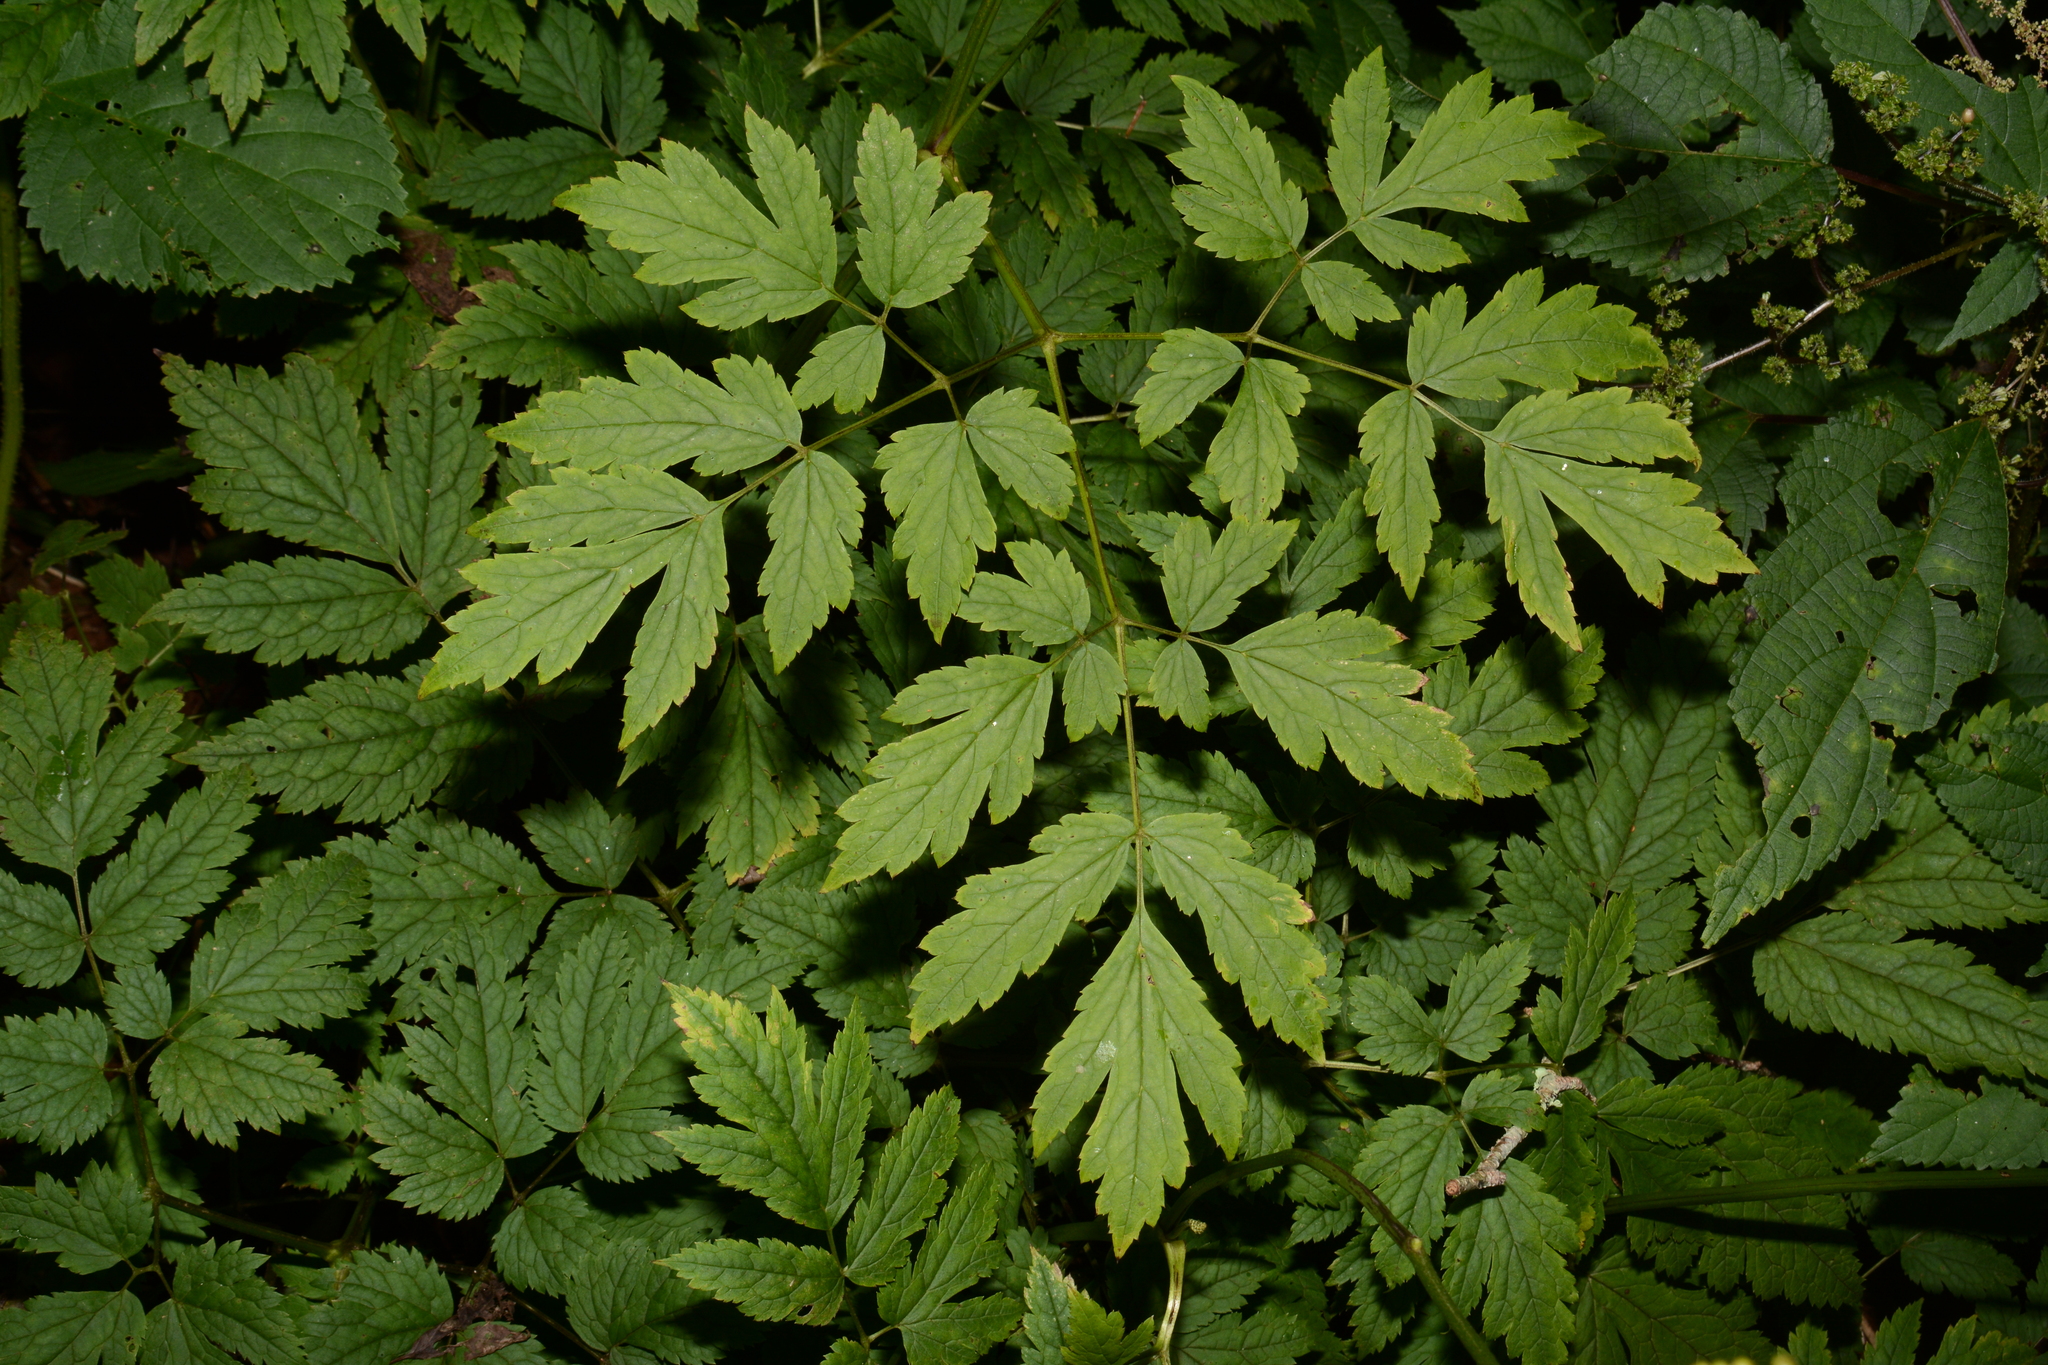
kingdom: Plantae
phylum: Tracheophyta
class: Magnoliopsida
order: Ranunculales
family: Ranunculaceae
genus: Actaea
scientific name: Actaea podocarpa
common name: American bugbane
